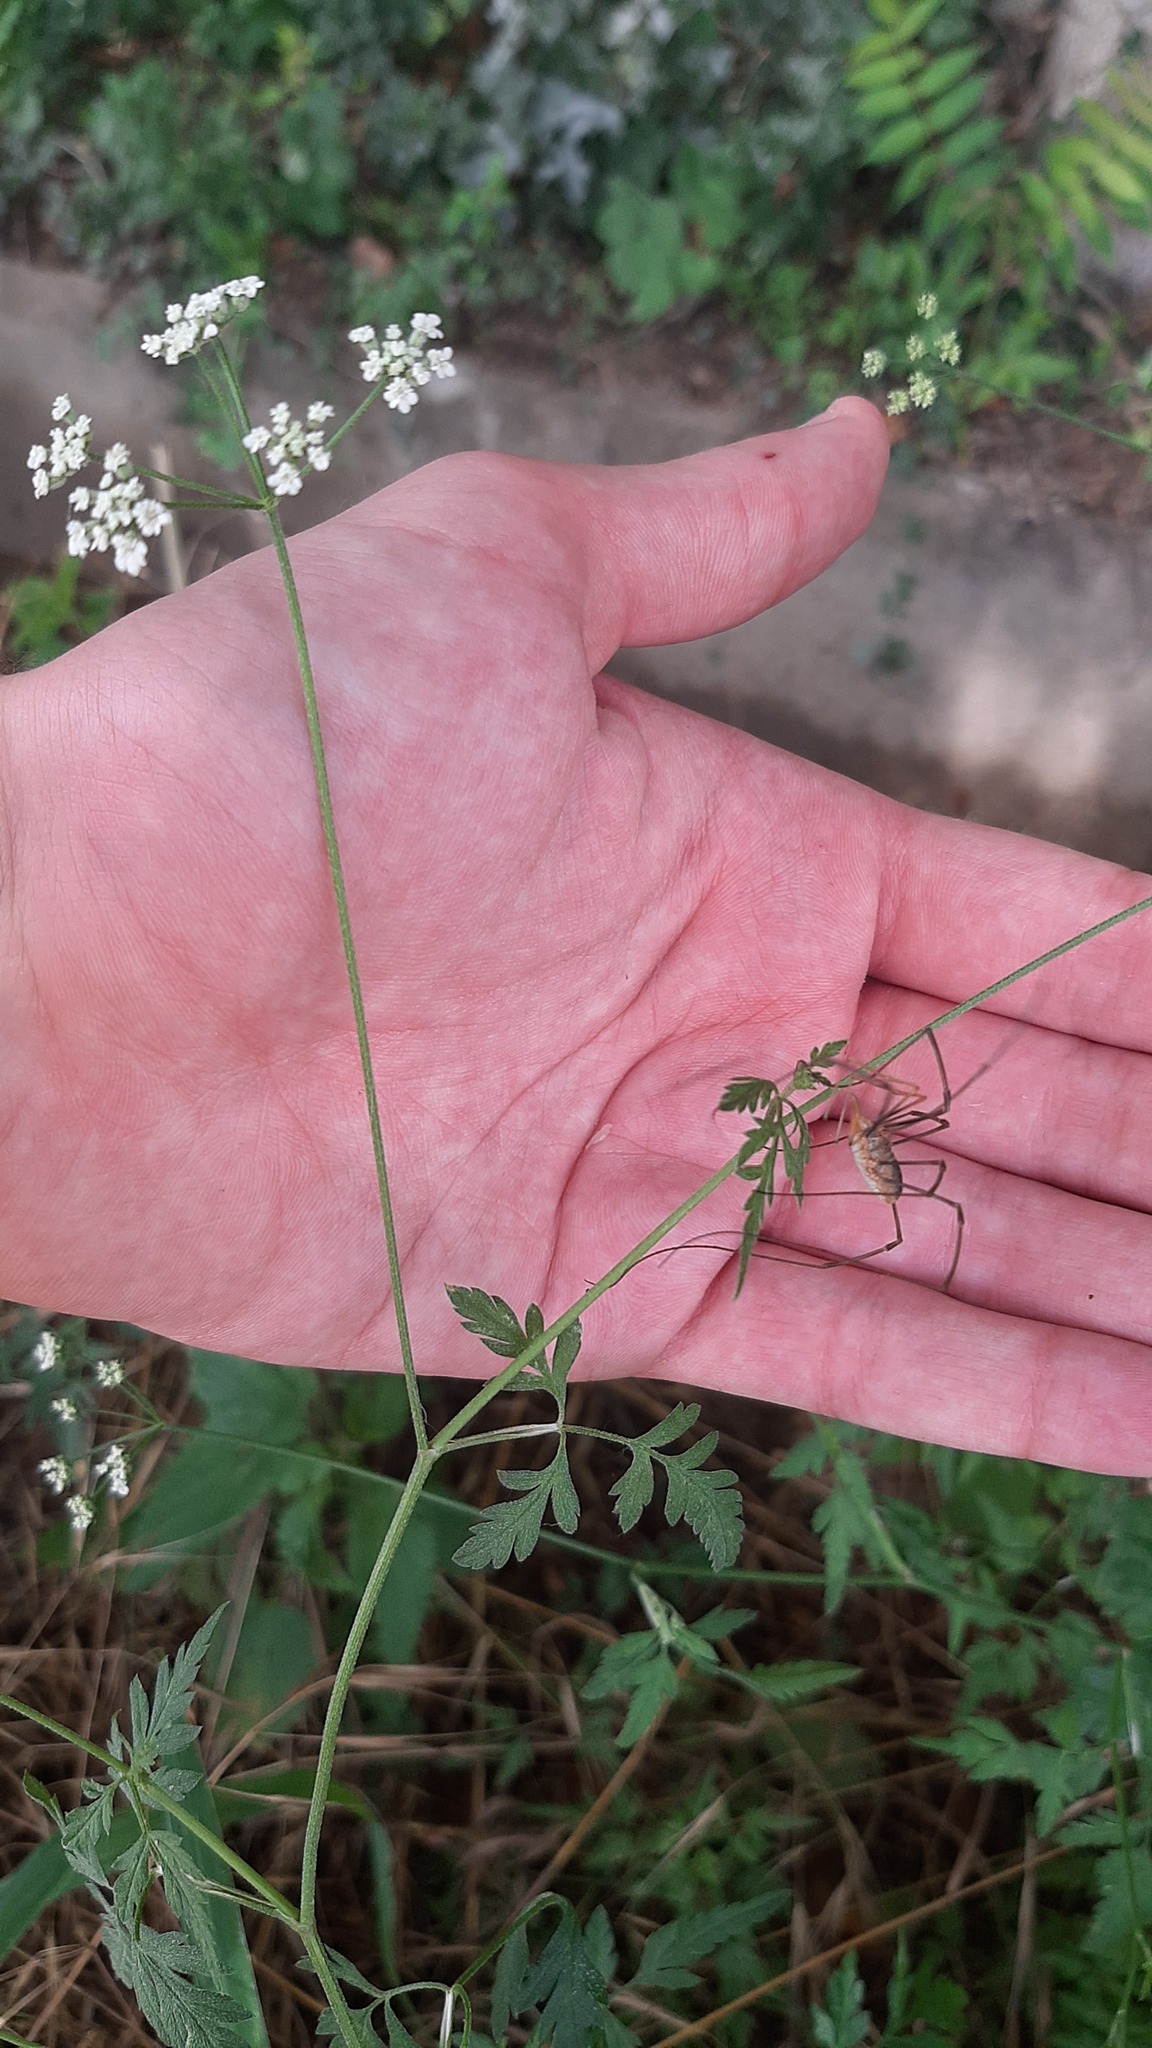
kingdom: Animalia
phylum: Arthropoda
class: Arachnida
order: Opiliones
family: Phalangiidae
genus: Phalangium
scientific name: Phalangium opilio
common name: Daddy longleg
